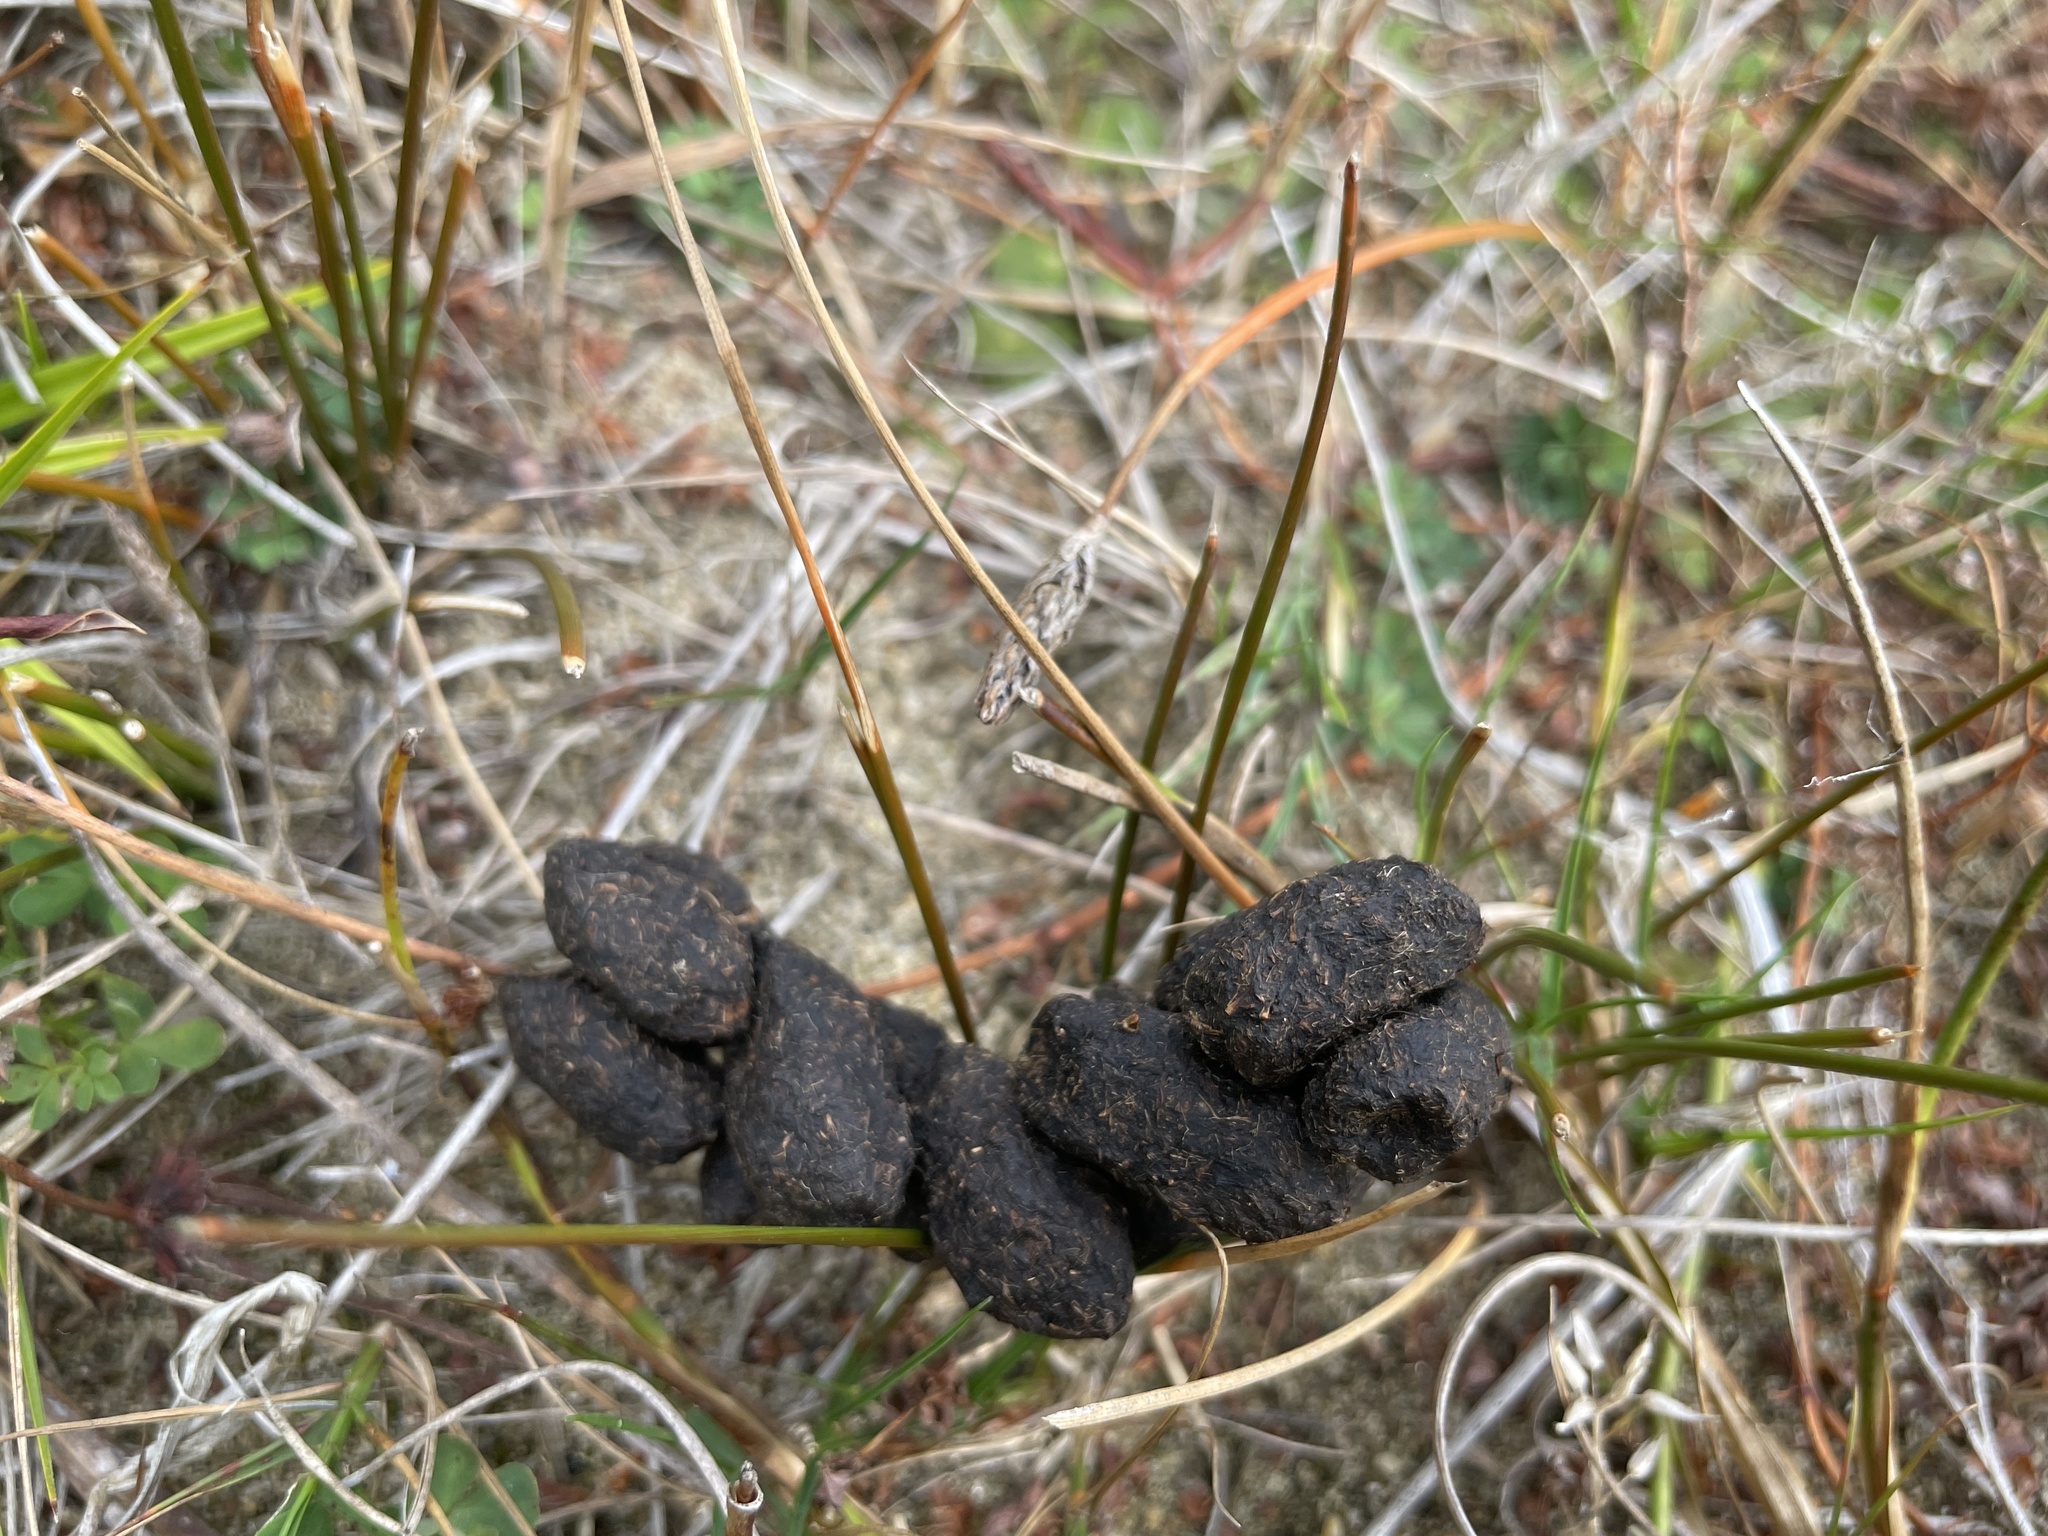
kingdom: Animalia
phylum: Chordata
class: Mammalia
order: Diprotodontia
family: Phalangeridae
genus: Trichosurus
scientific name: Trichosurus vulpecula
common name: Common brushtail
